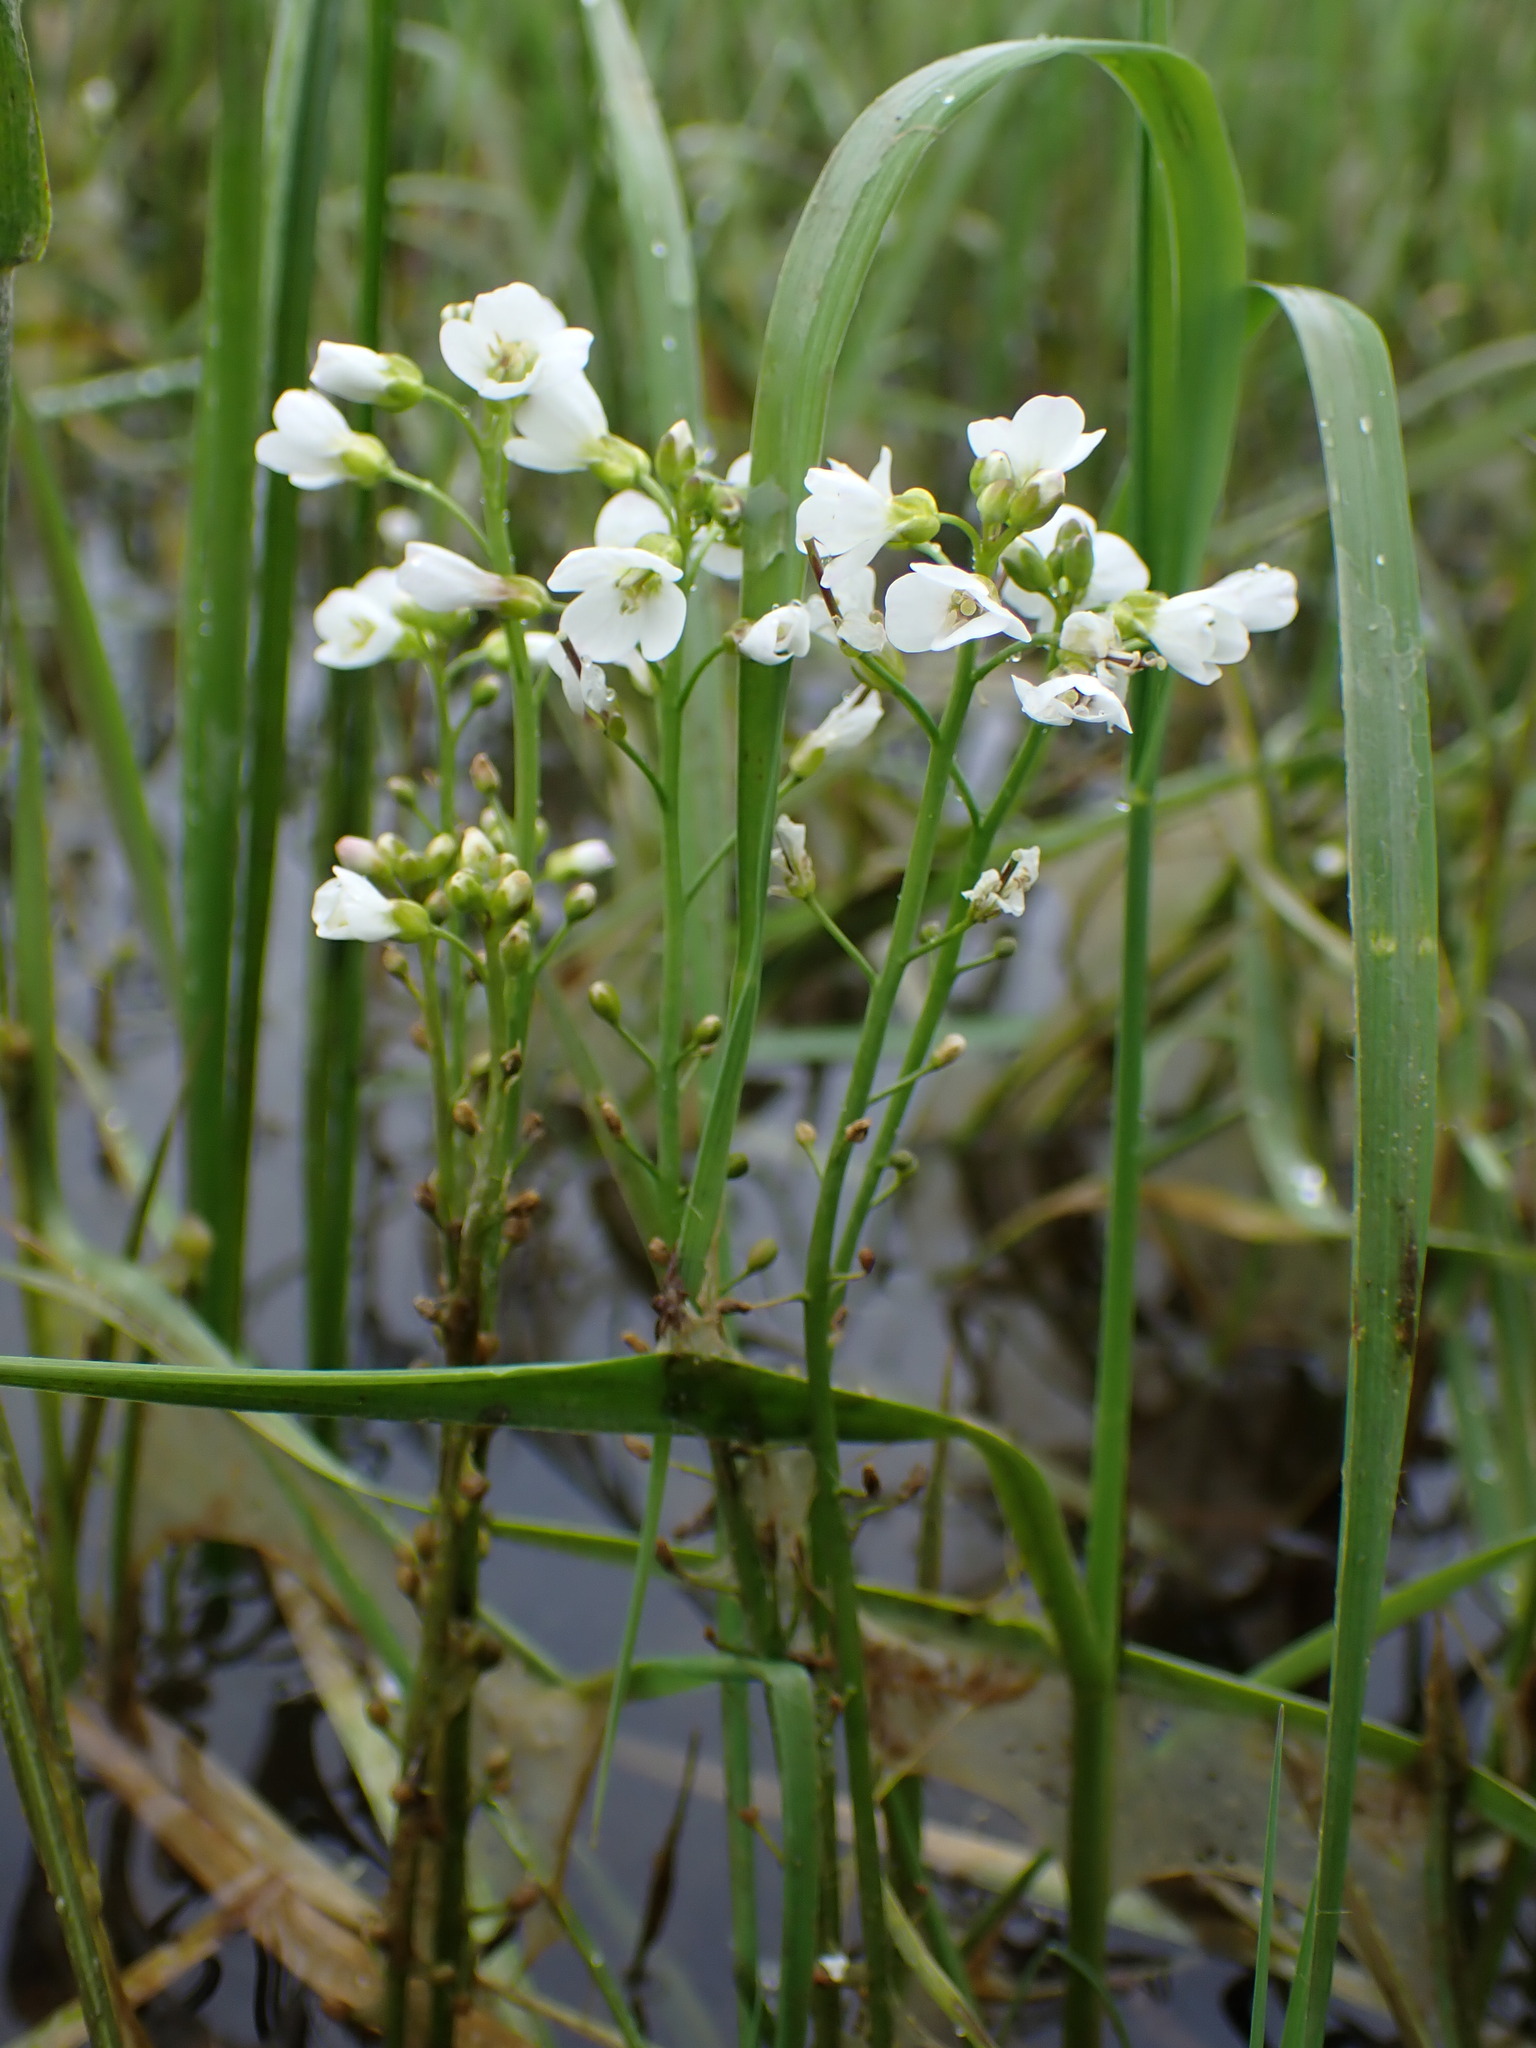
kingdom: Plantae
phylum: Tracheophyta
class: Magnoliopsida
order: Brassicales
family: Brassicaceae
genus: Cardamine
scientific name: Cardamine matthioli
